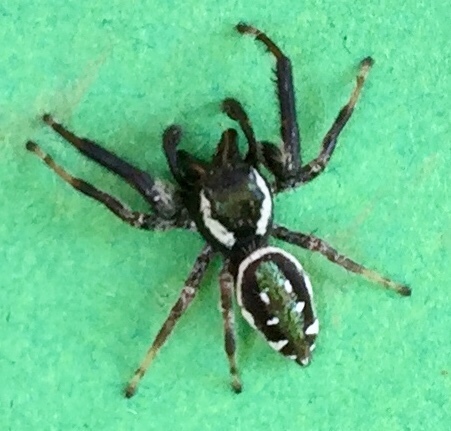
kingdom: Animalia
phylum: Arthropoda
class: Arachnida
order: Araneae
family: Salticidae
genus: Paraphidippus
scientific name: Paraphidippus aurantius
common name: Jumping spiders
